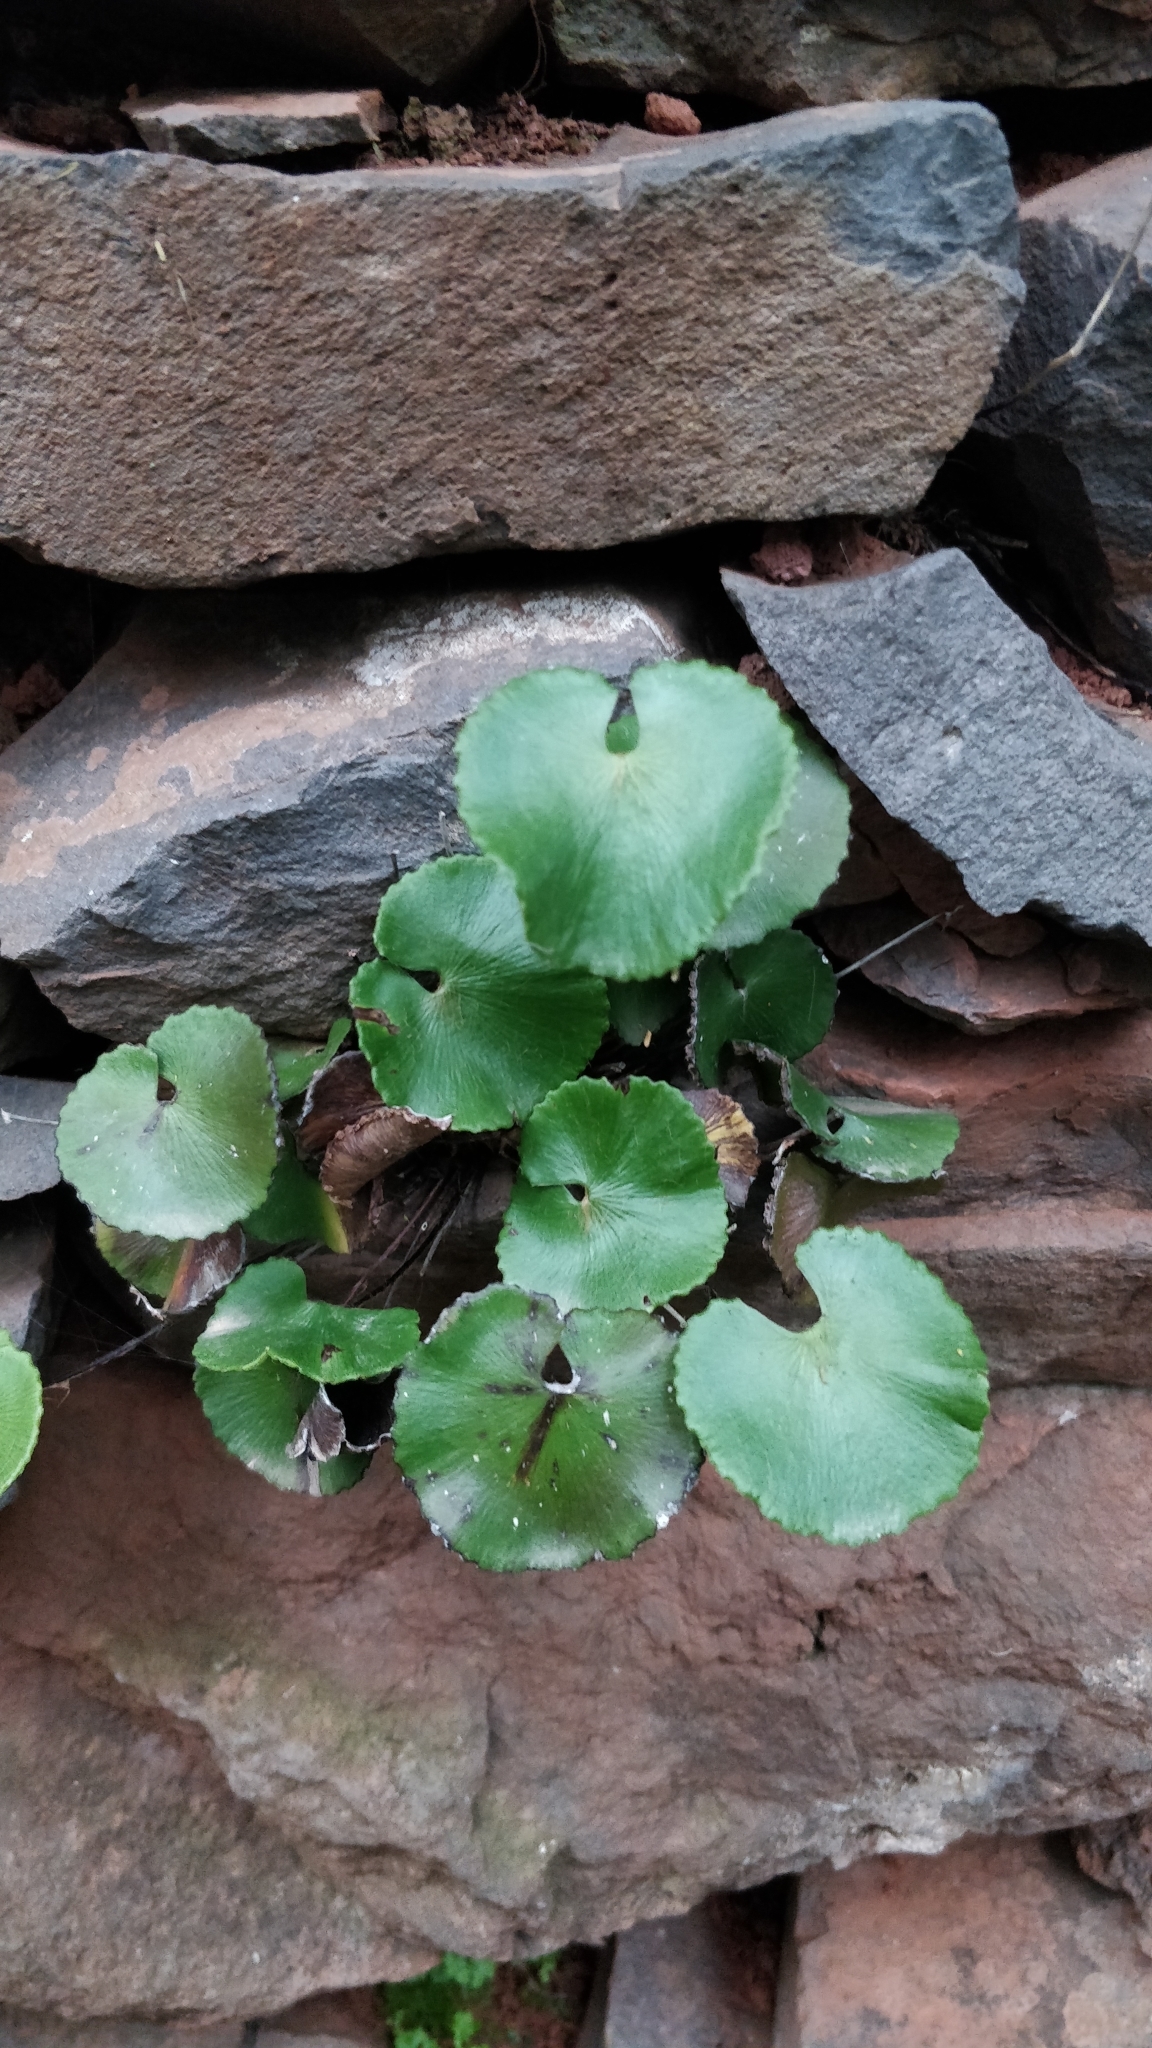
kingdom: Plantae
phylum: Tracheophyta
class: Polypodiopsida
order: Polypodiales
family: Pteridaceae
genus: Adiantum
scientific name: Adiantum reniforme
